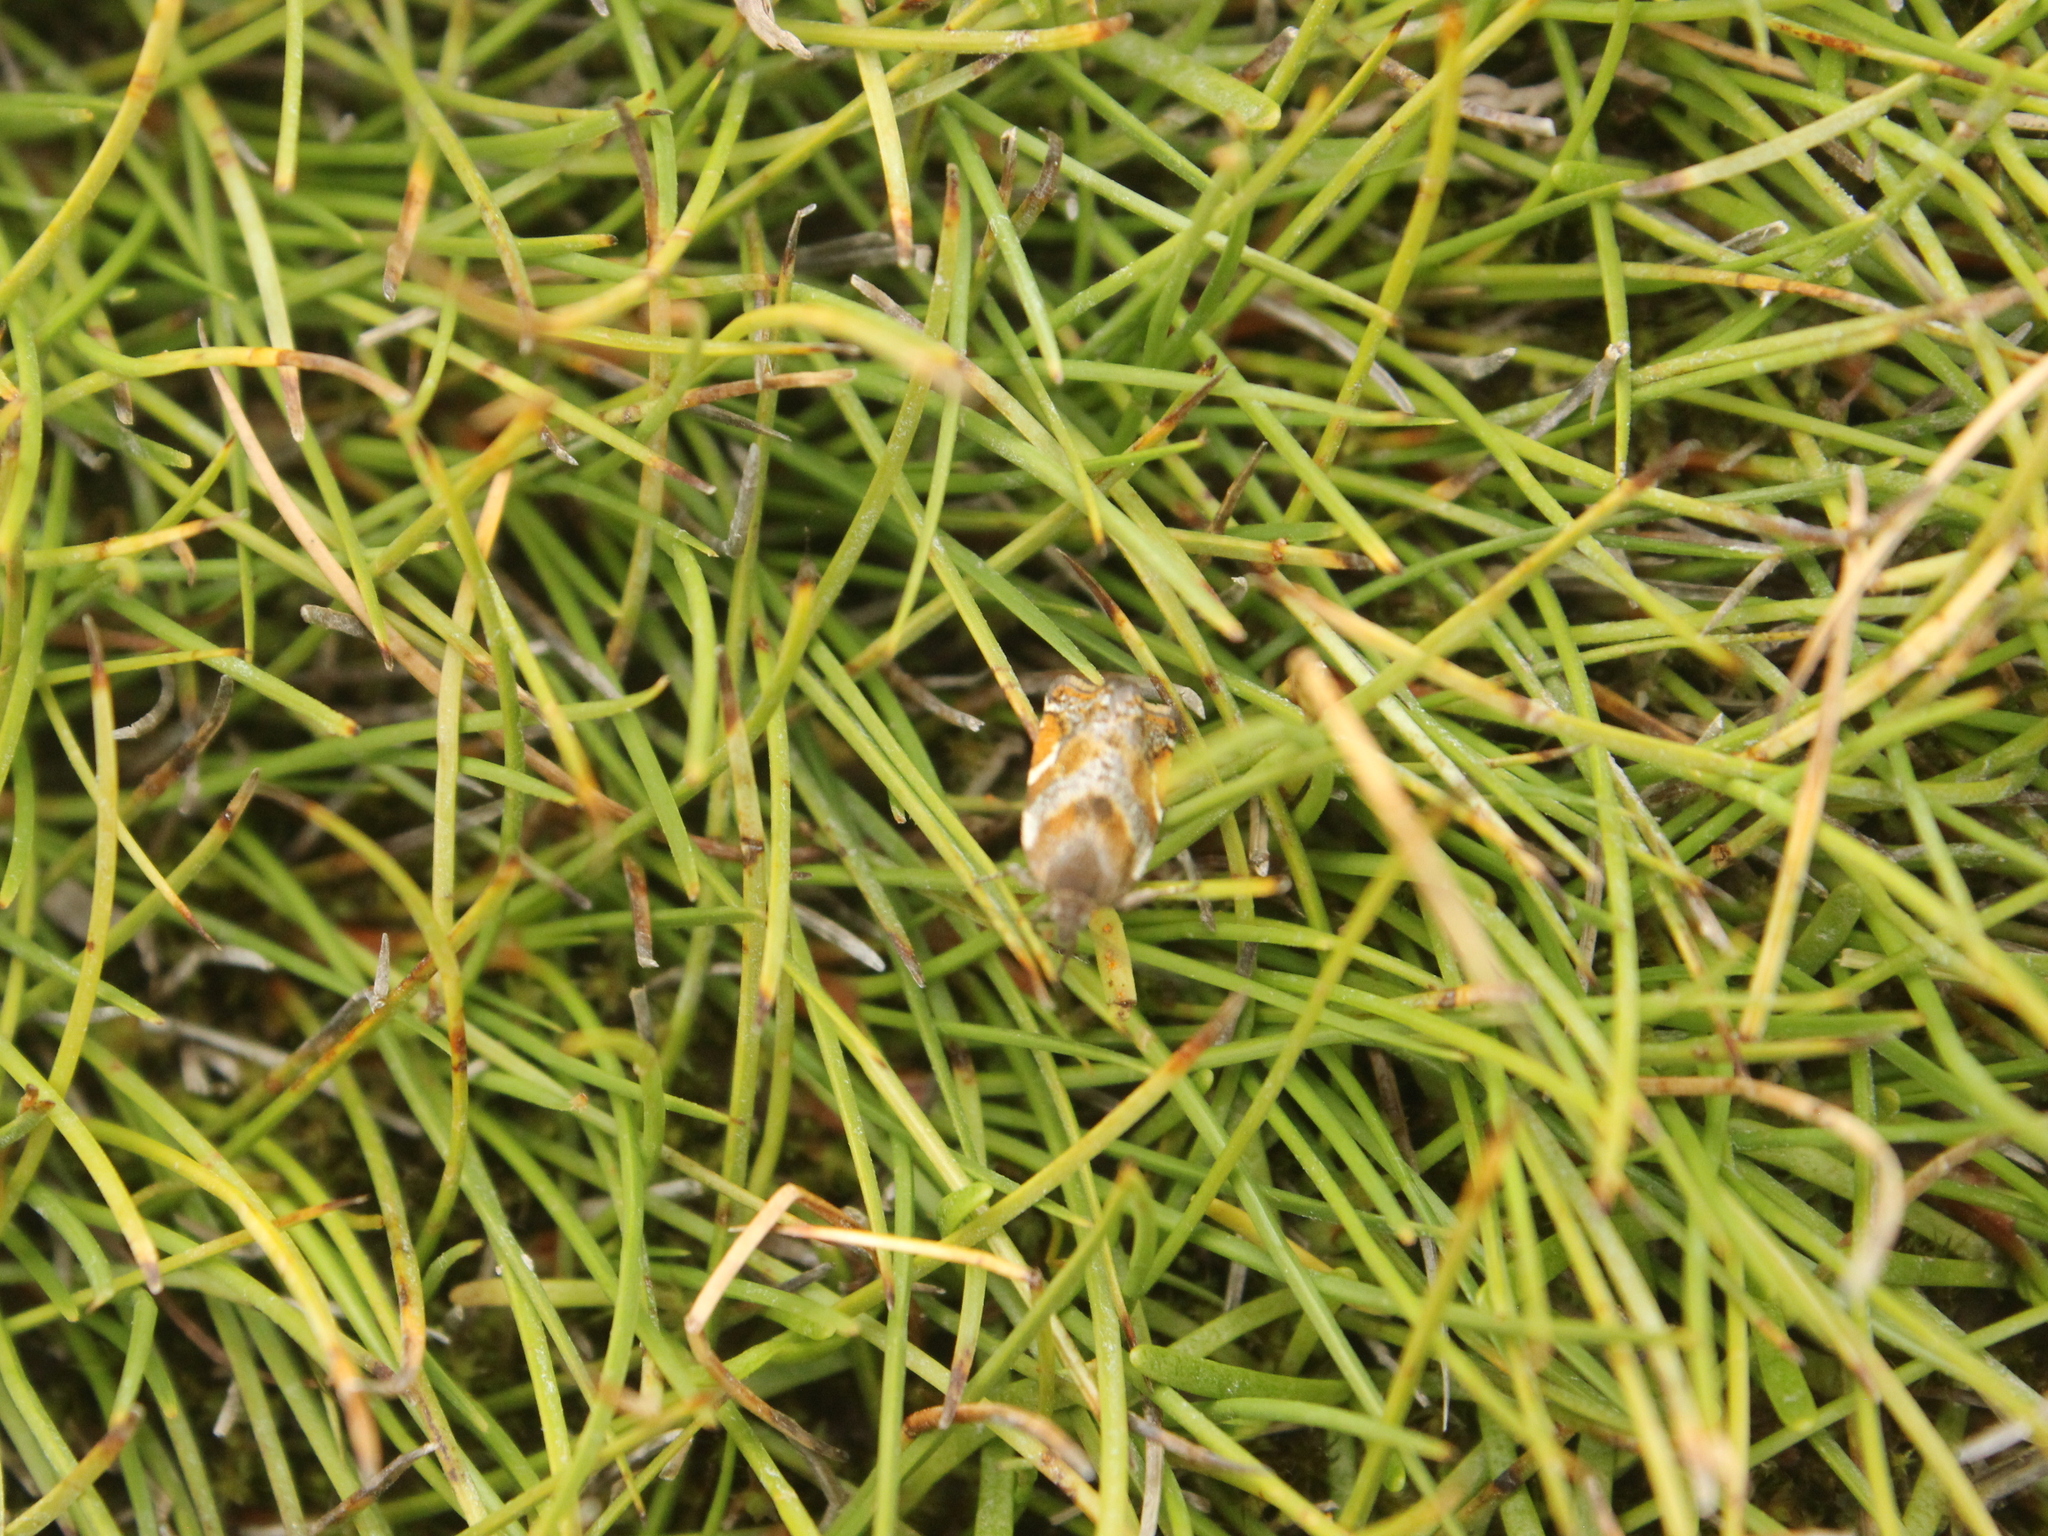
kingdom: Animalia
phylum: Arthropoda
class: Insecta
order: Lepidoptera
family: Tortricidae
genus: Epichorista
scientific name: Epichorista emphanes
